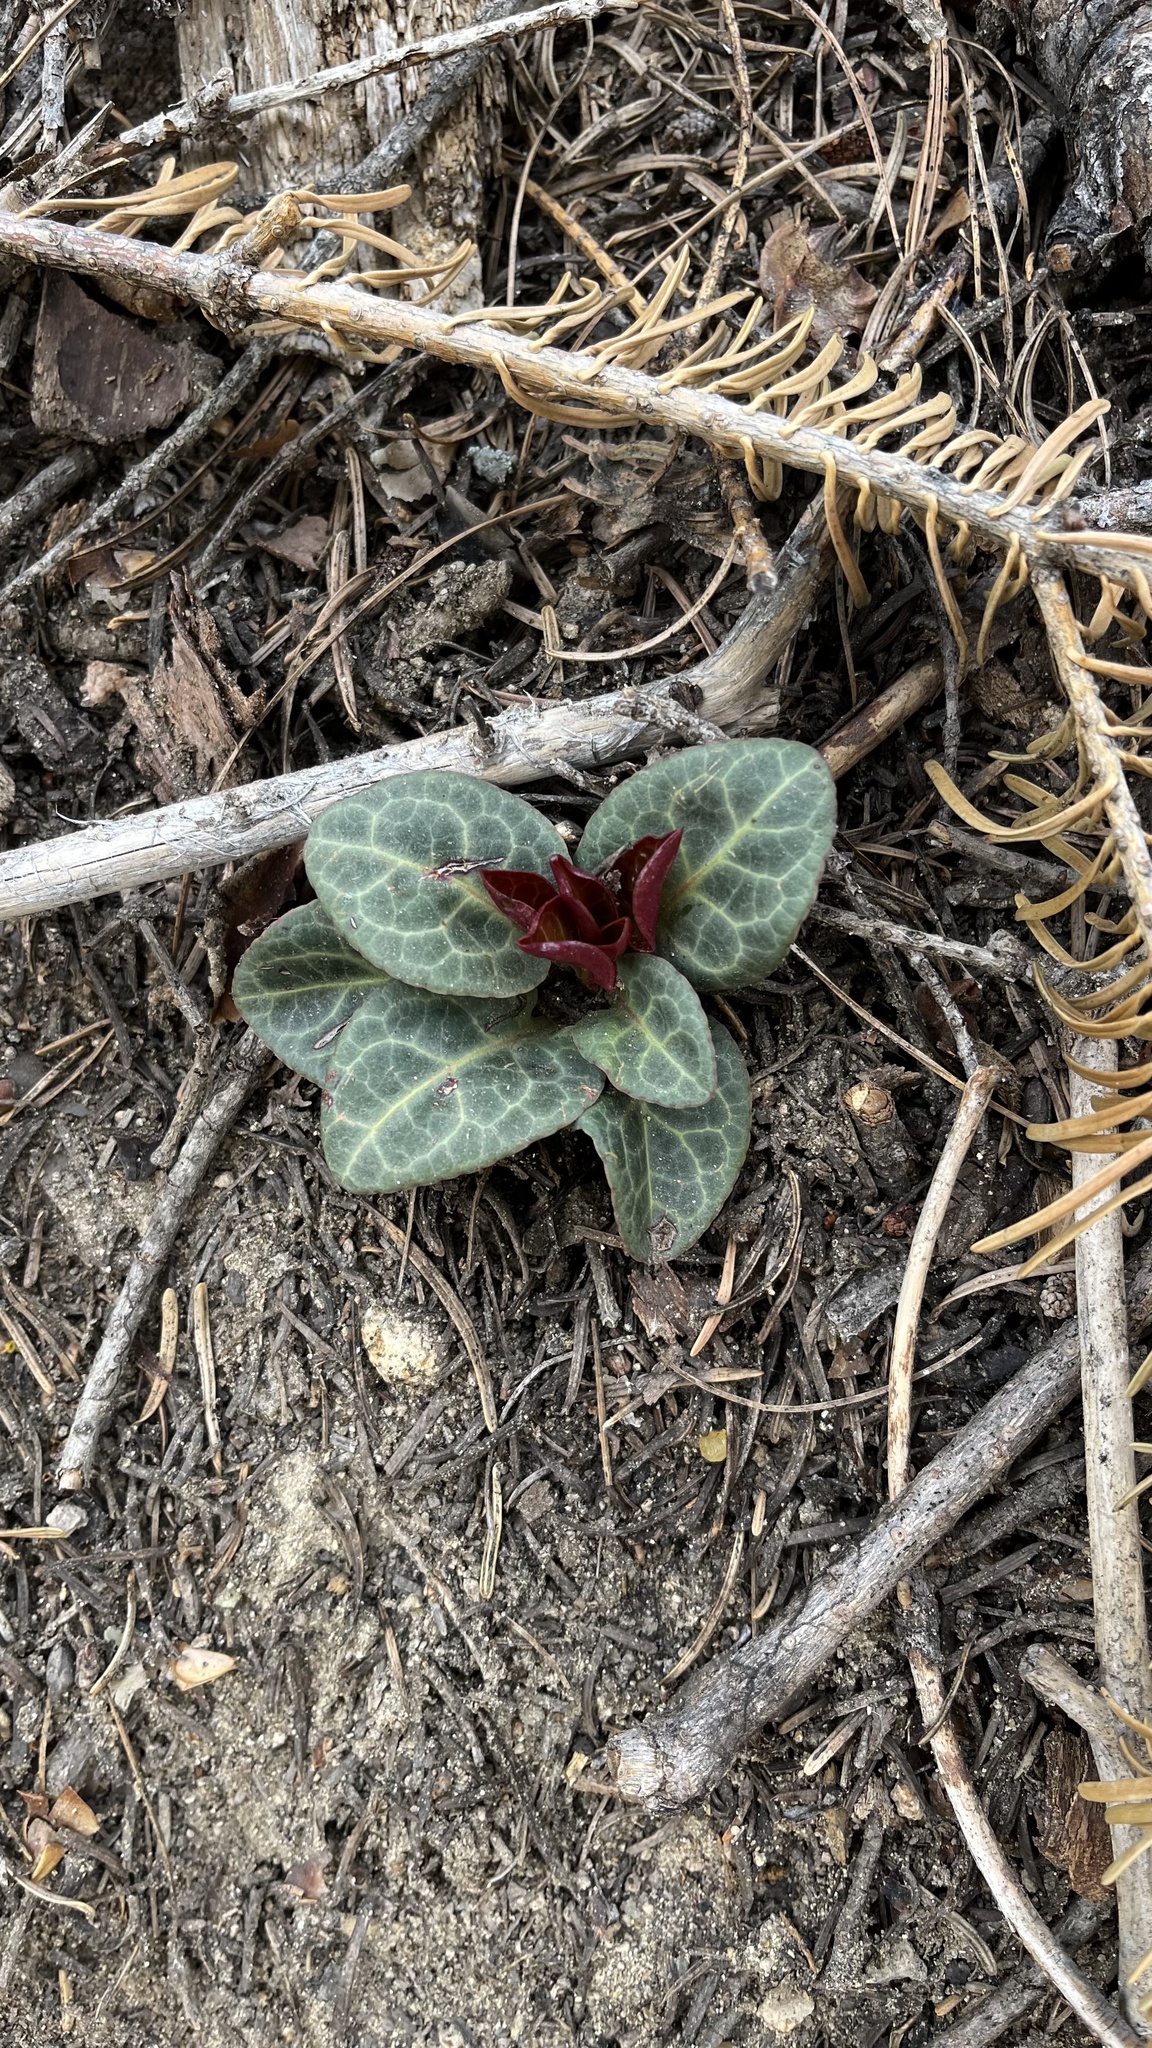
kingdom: Plantae
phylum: Tracheophyta
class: Magnoliopsida
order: Ericales
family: Ericaceae
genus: Pyrola
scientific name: Pyrola picta
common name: White-vein wintergreen
